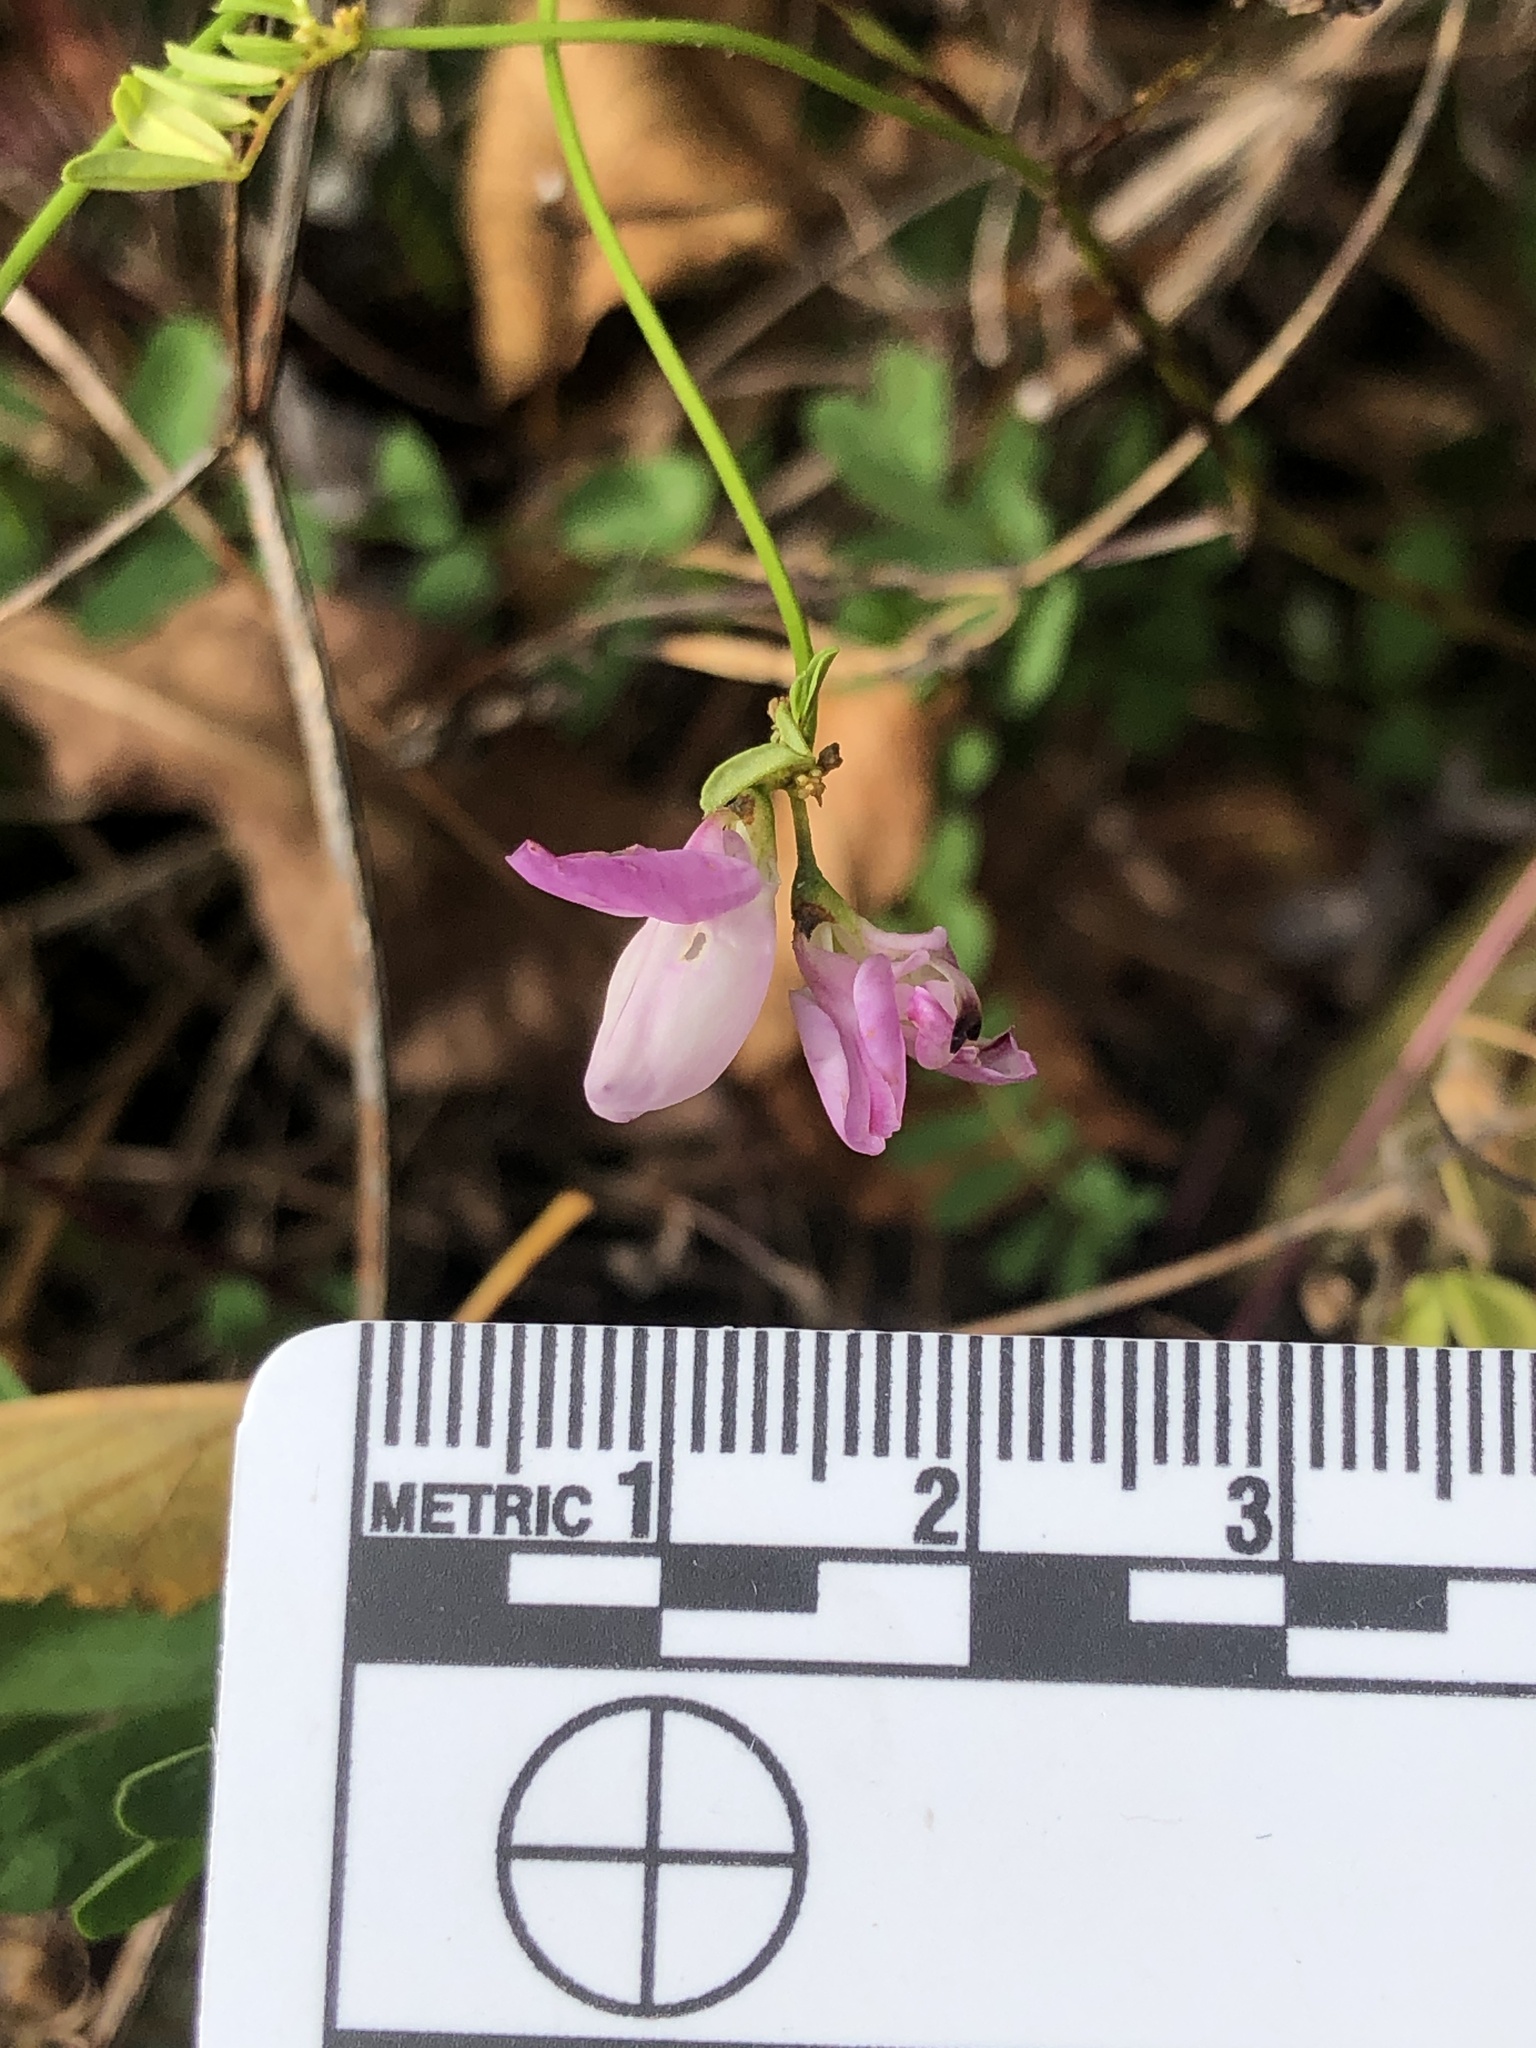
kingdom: Plantae
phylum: Tracheophyta
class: Magnoliopsida
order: Fabales
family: Fabaceae
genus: Coronilla
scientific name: Coronilla varia
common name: Crownvetch
